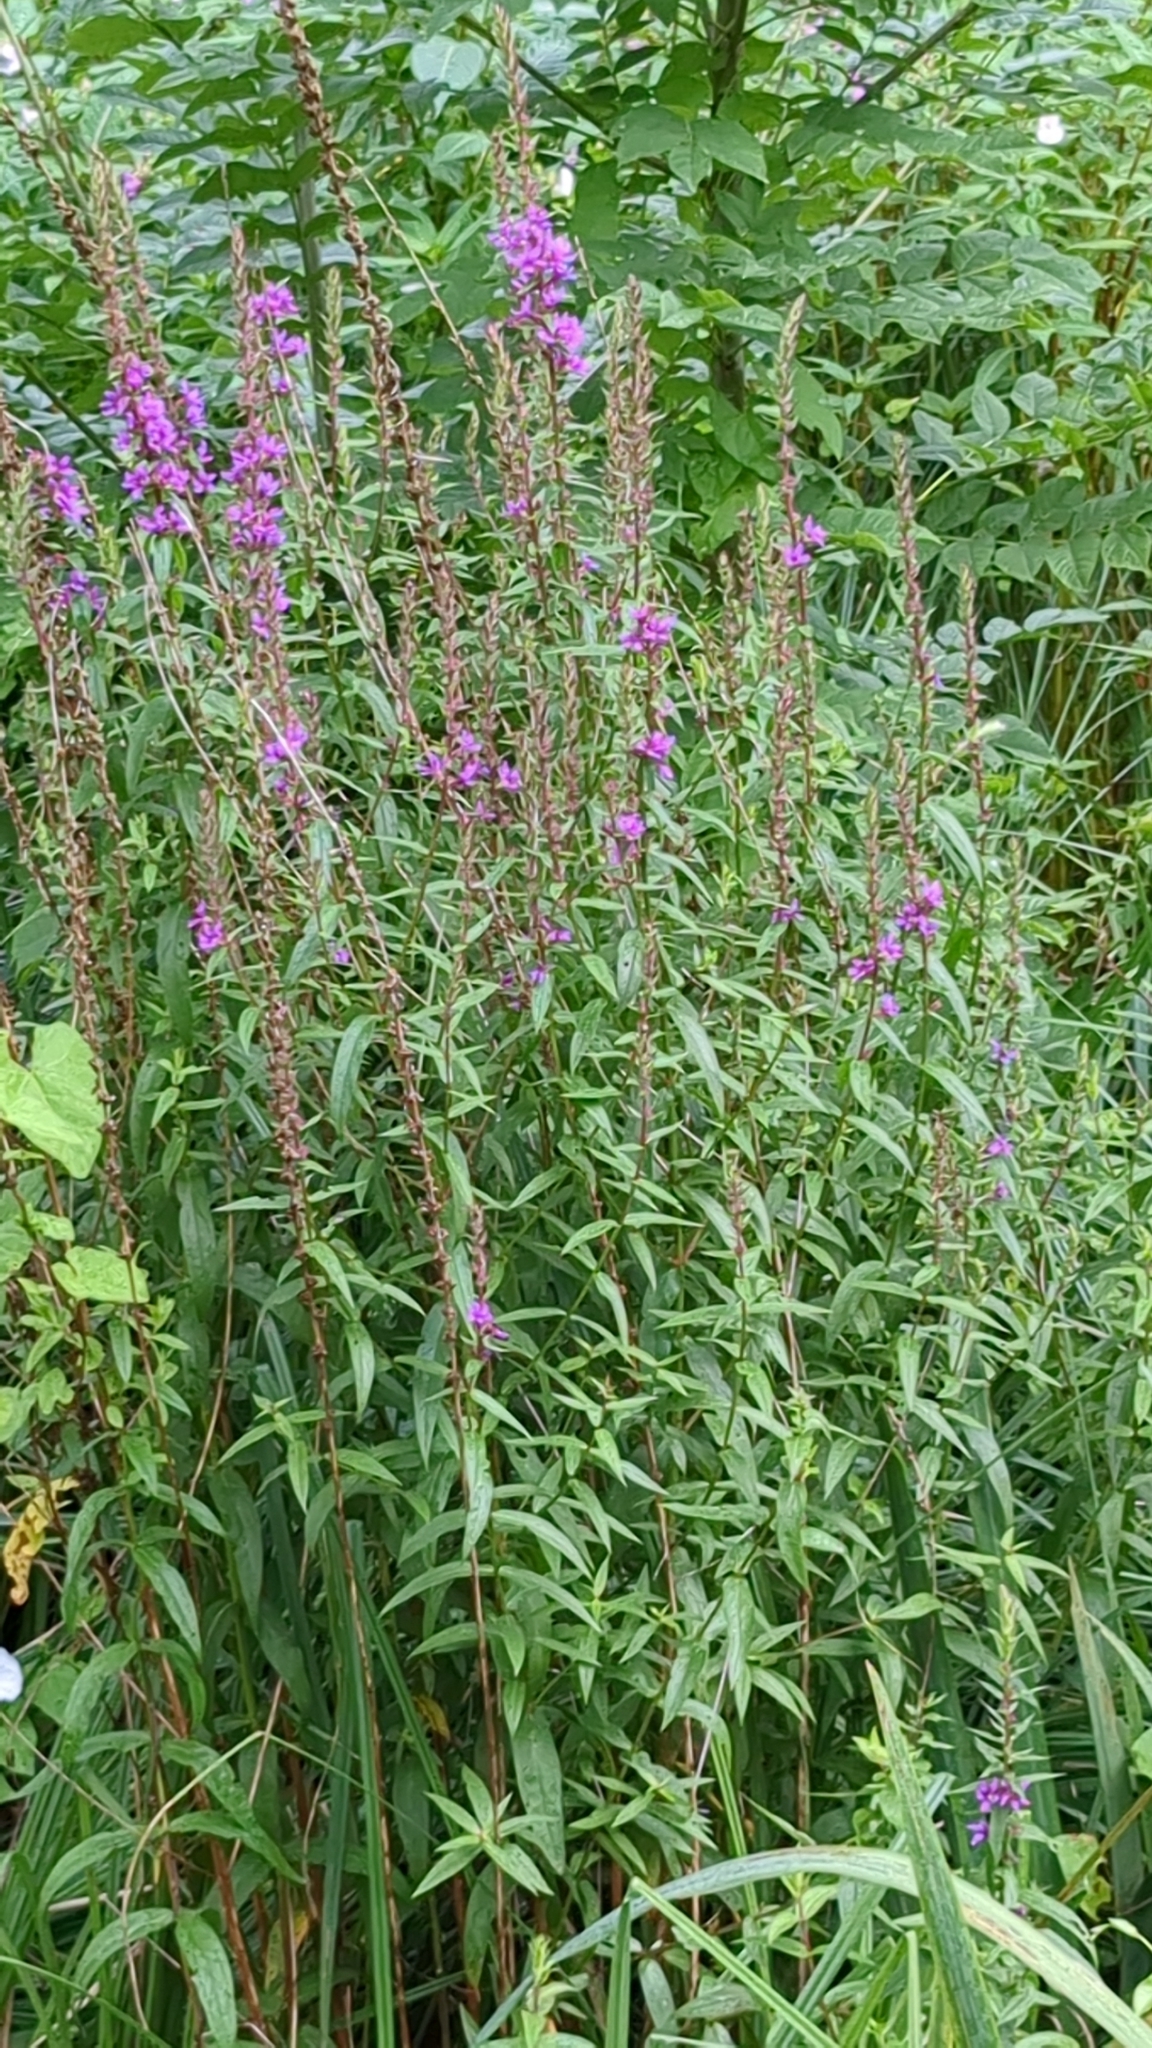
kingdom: Plantae
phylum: Tracheophyta
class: Magnoliopsida
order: Myrtales
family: Lythraceae
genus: Lythrum
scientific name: Lythrum salicaria
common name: Purple loosestrife
